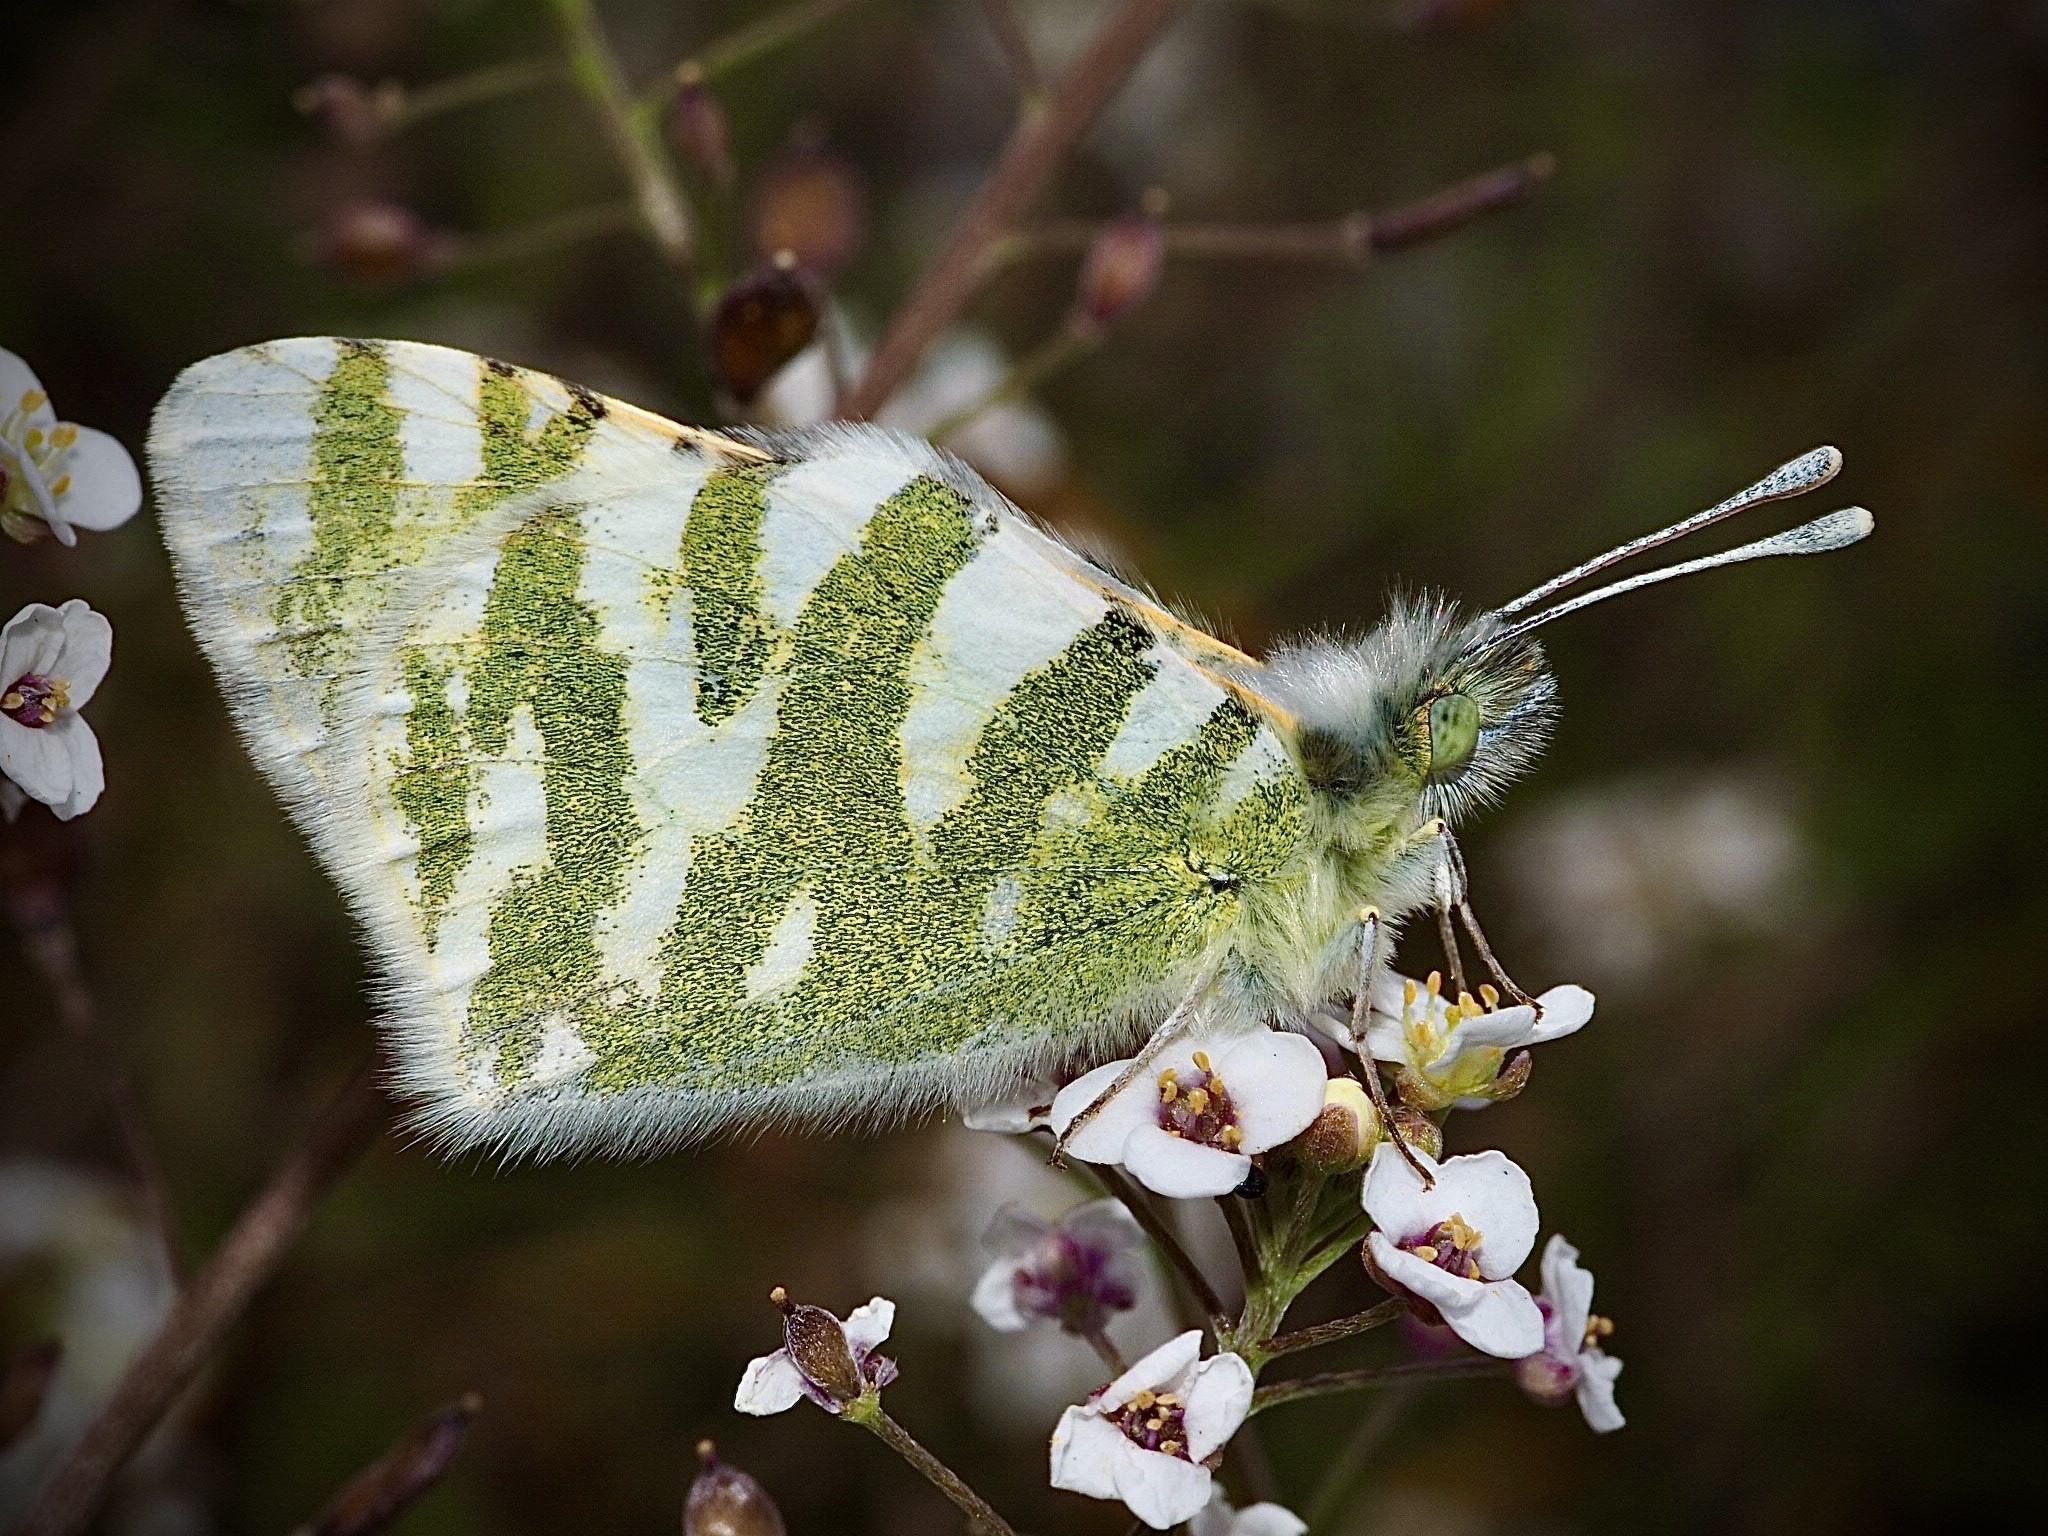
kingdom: Animalia
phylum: Arthropoda
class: Insecta
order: Lepidoptera
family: Pieridae
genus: Euchloe
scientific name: Euchloe grancanariensis
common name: Gran canaria green-striped white
